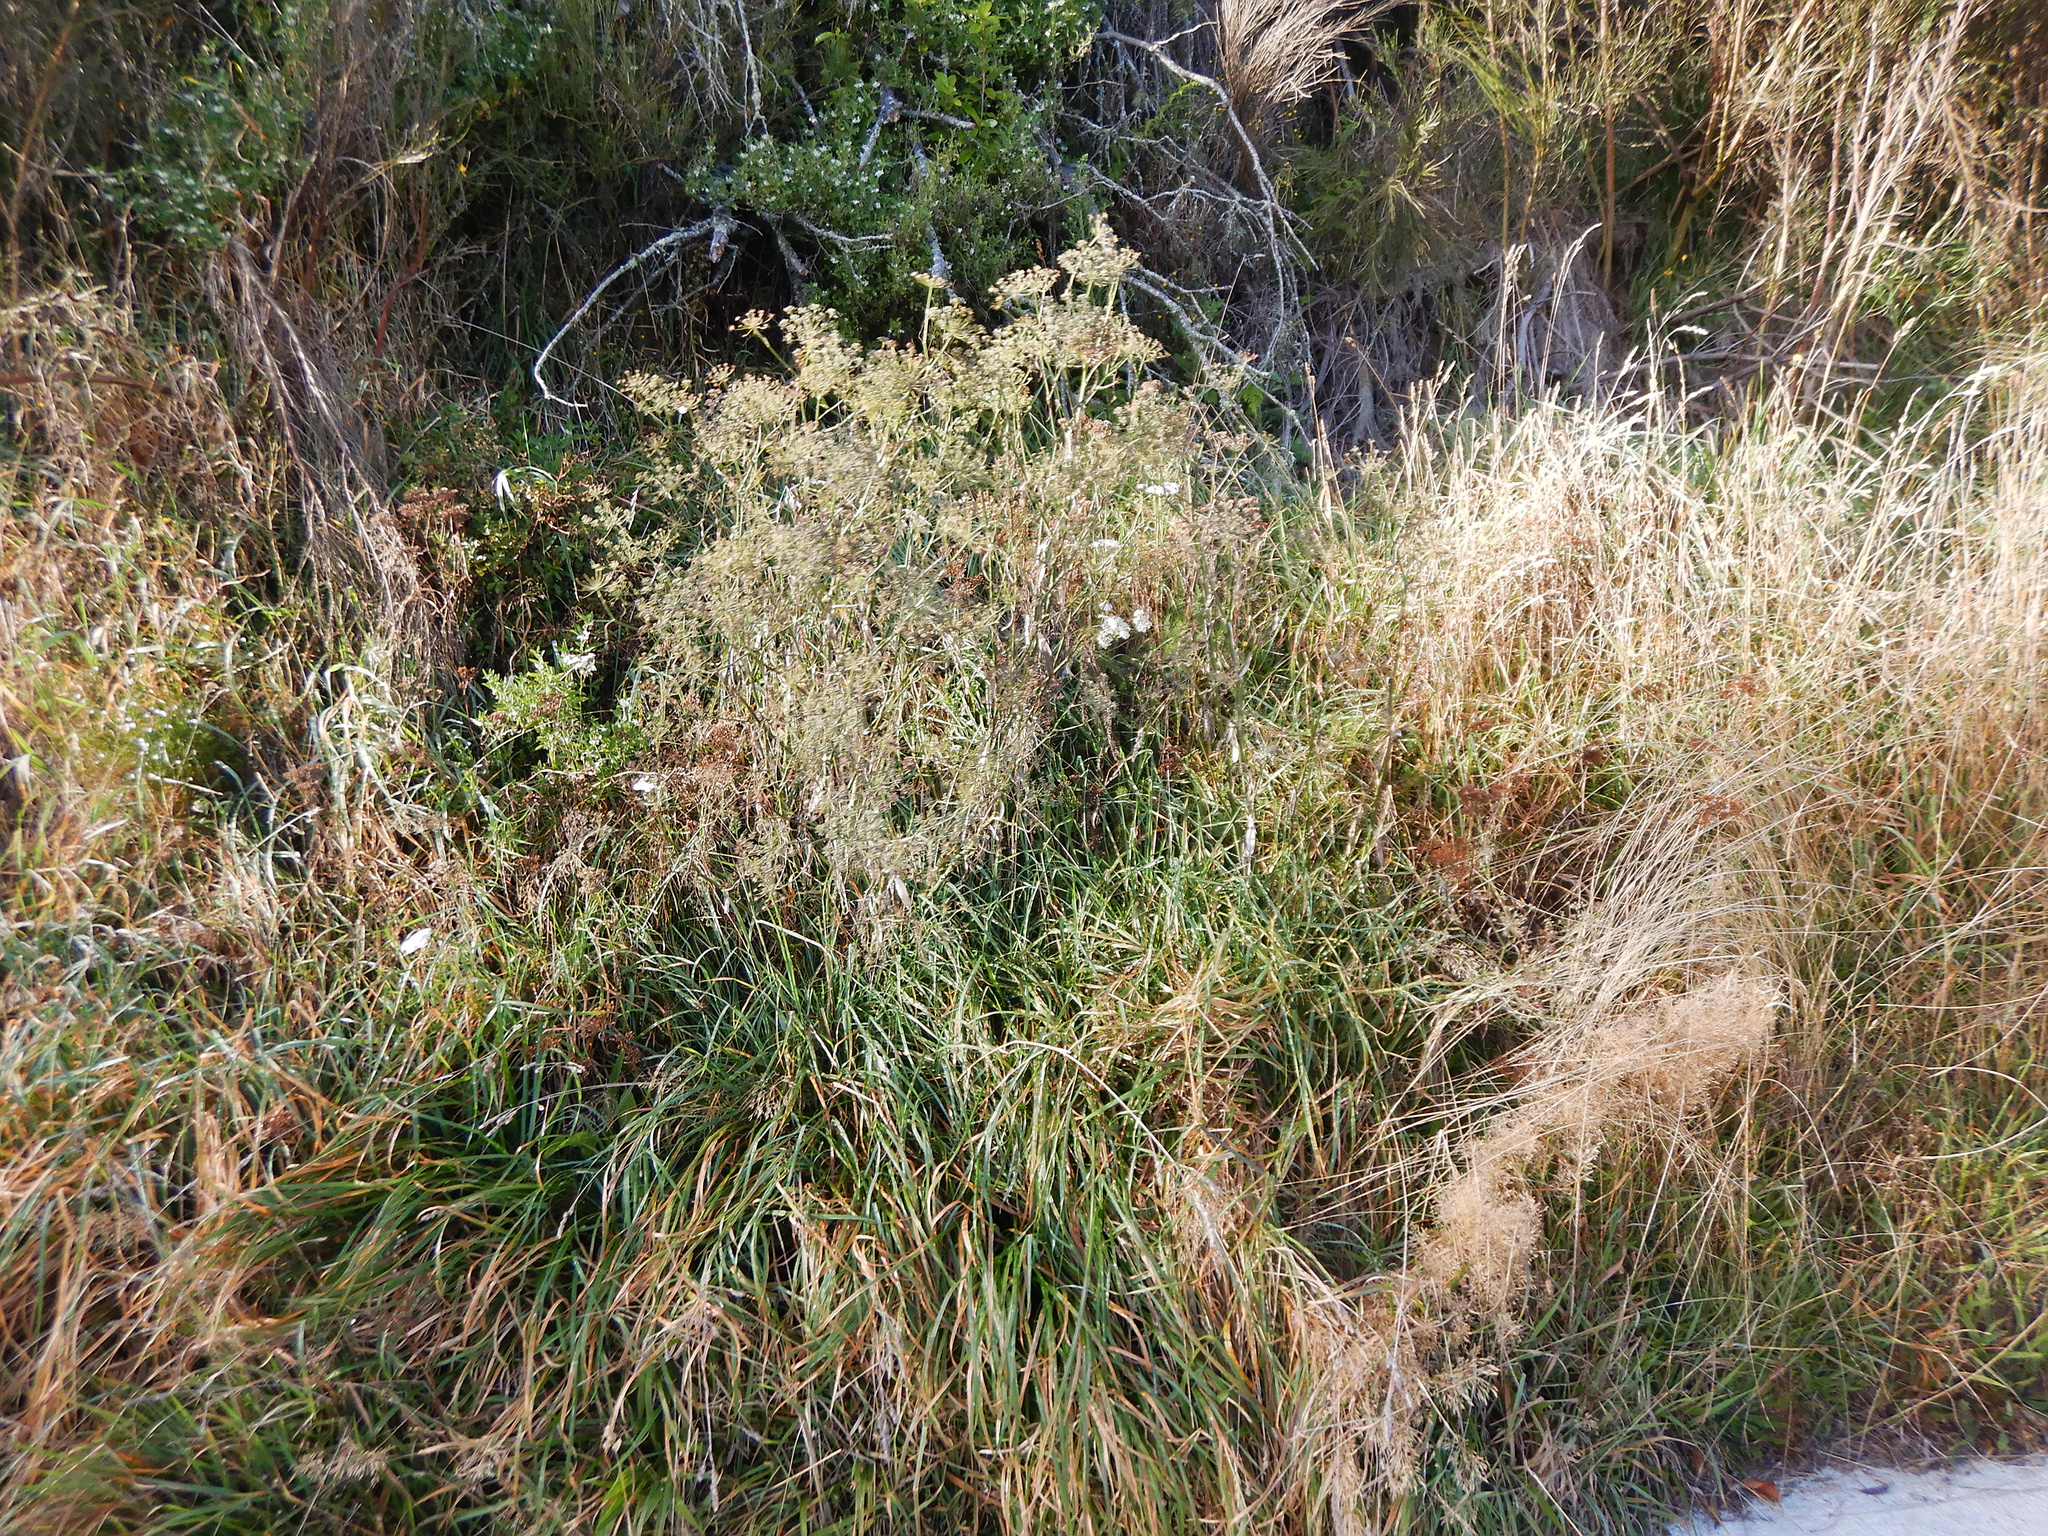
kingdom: Plantae
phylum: Tracheophyta
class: Magnoliopsida
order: Apiales
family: Apiaceae
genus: Foeniculum
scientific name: Foeniculum vulgare
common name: Fennel
